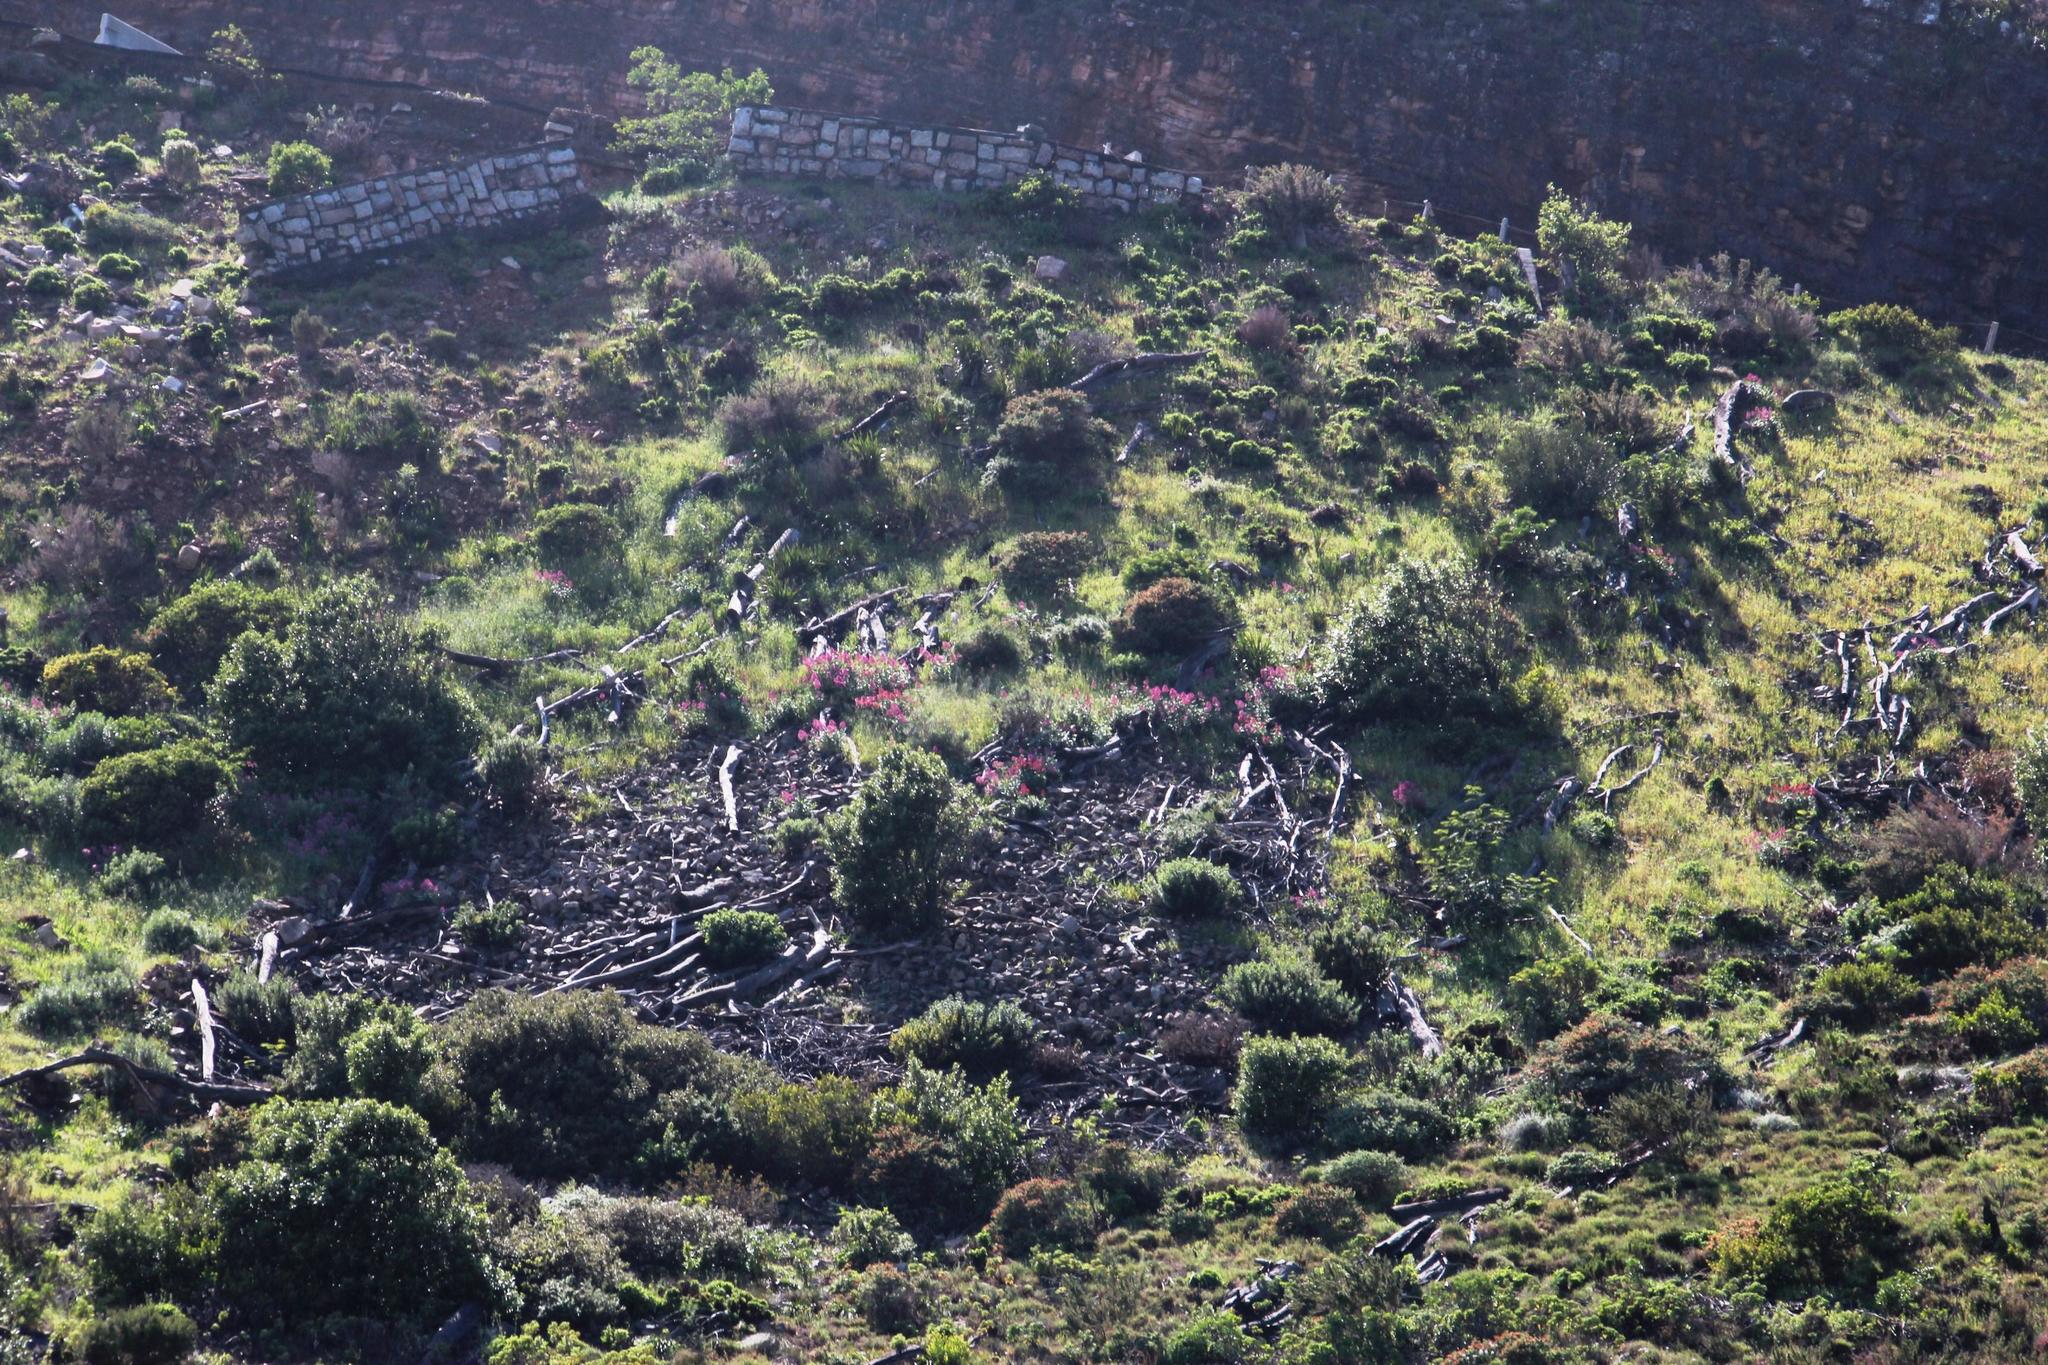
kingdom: Plantae
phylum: Tracheophyta
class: Magnoliopsida
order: Dipsacales
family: Caprifoliaceae
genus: Centranthus
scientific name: Centranthus ruber
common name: Red valerian
